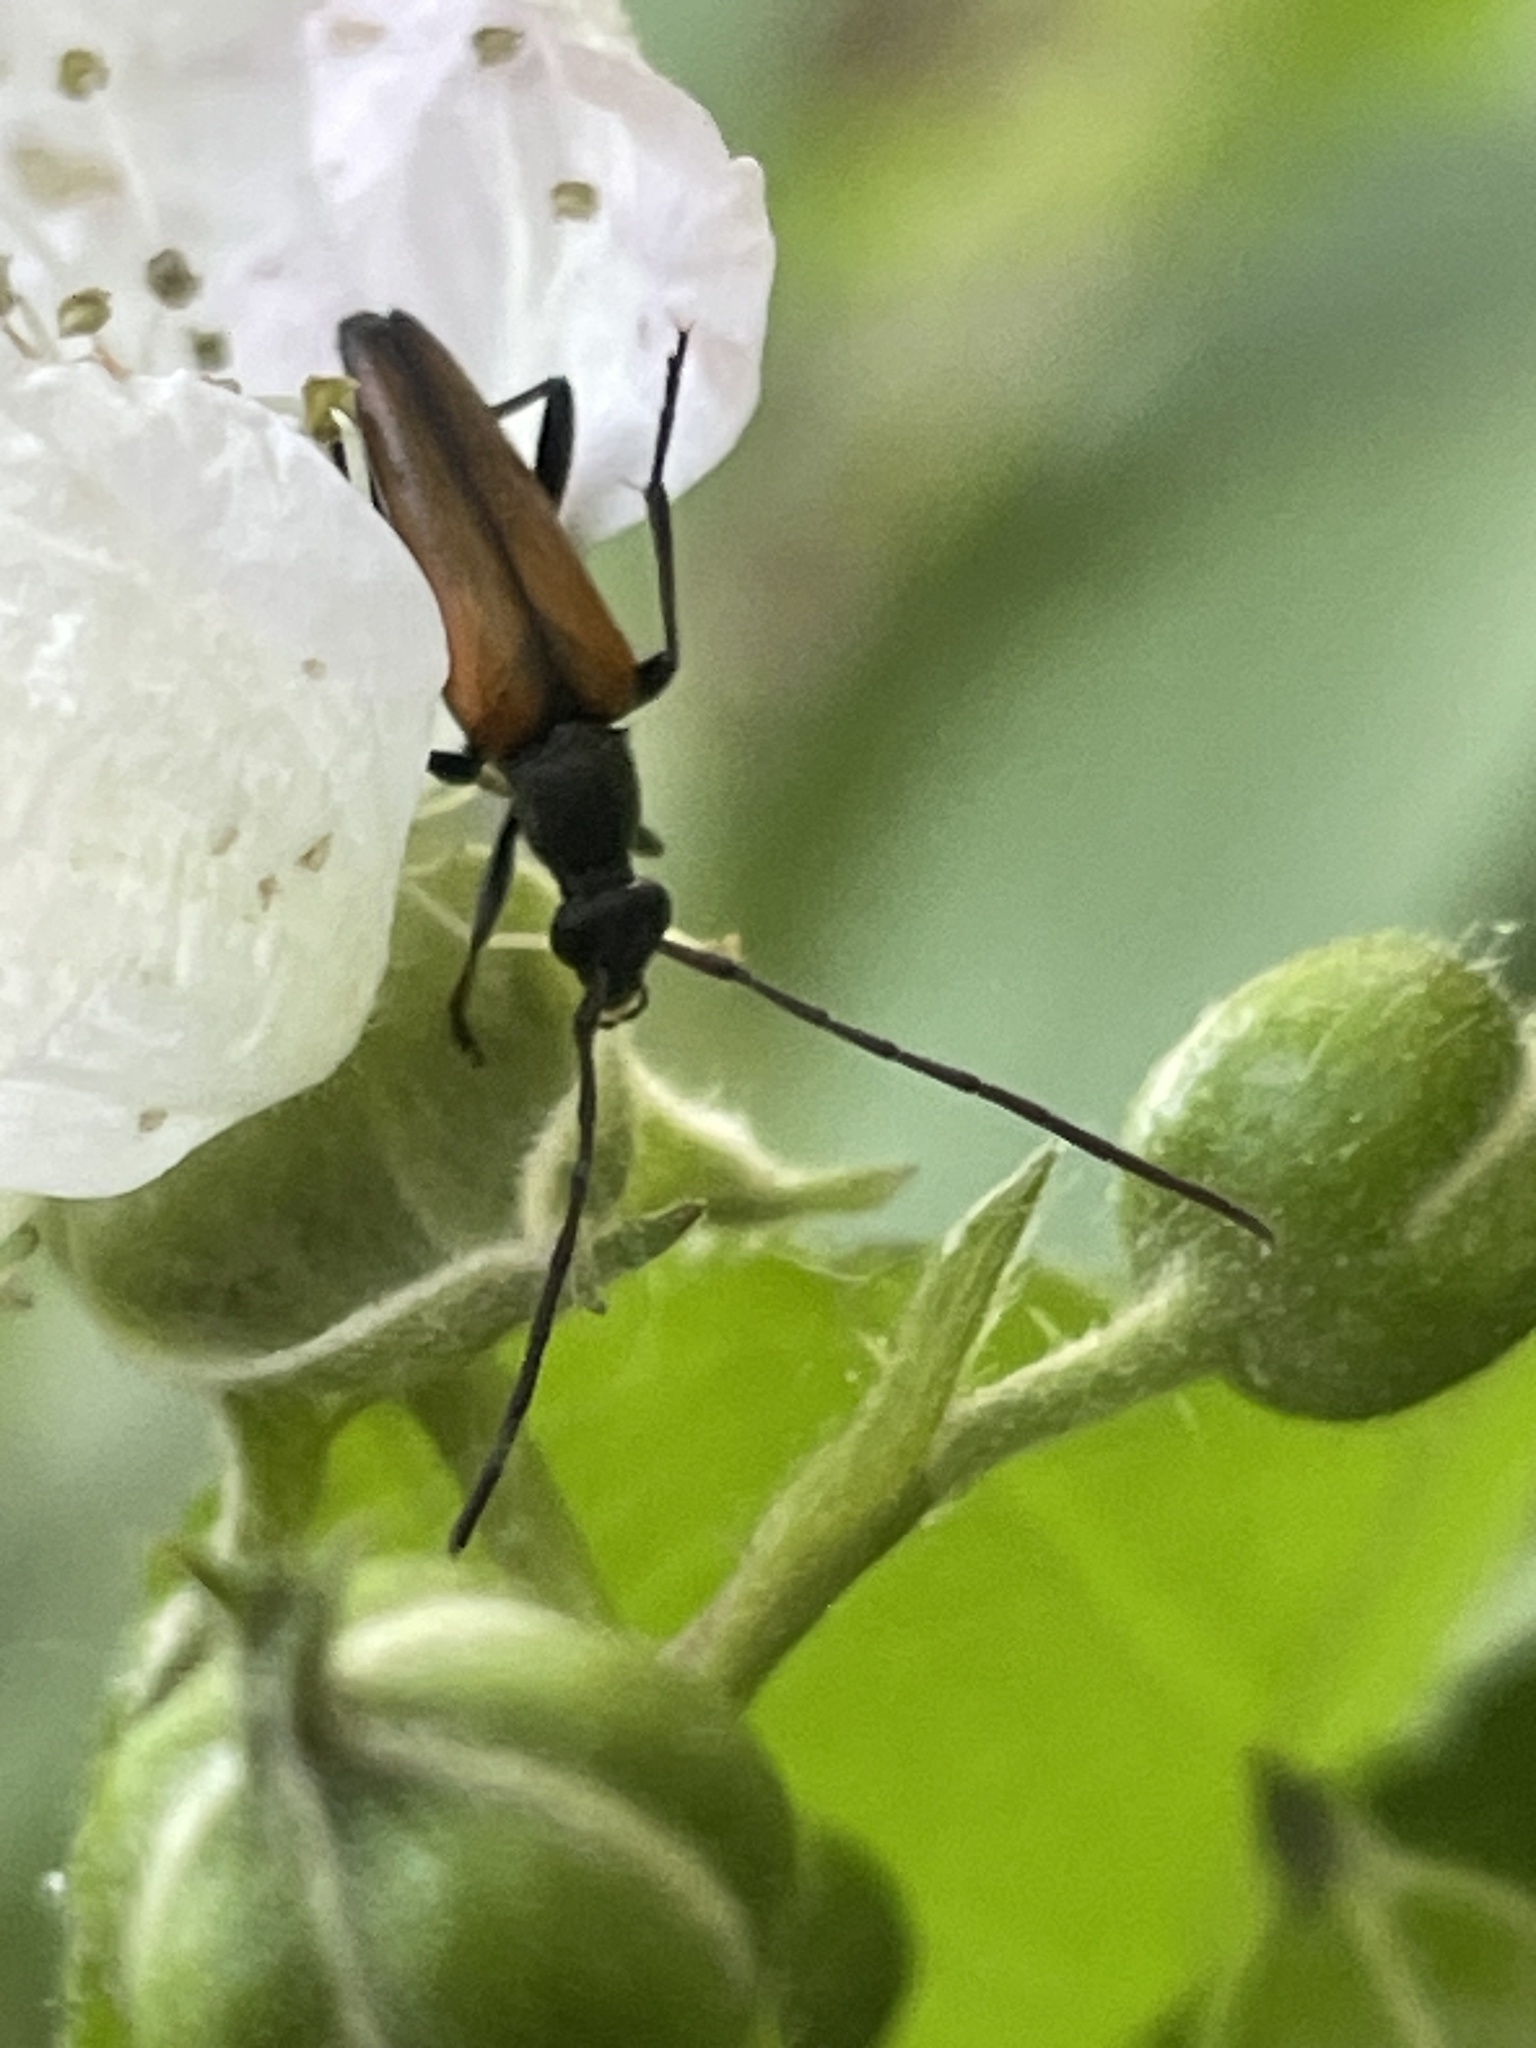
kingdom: Animalia
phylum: Arthropoda
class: Insecta
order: Coleoptera
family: Cerambycidae
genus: Stenurella
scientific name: Stenurella melanura
